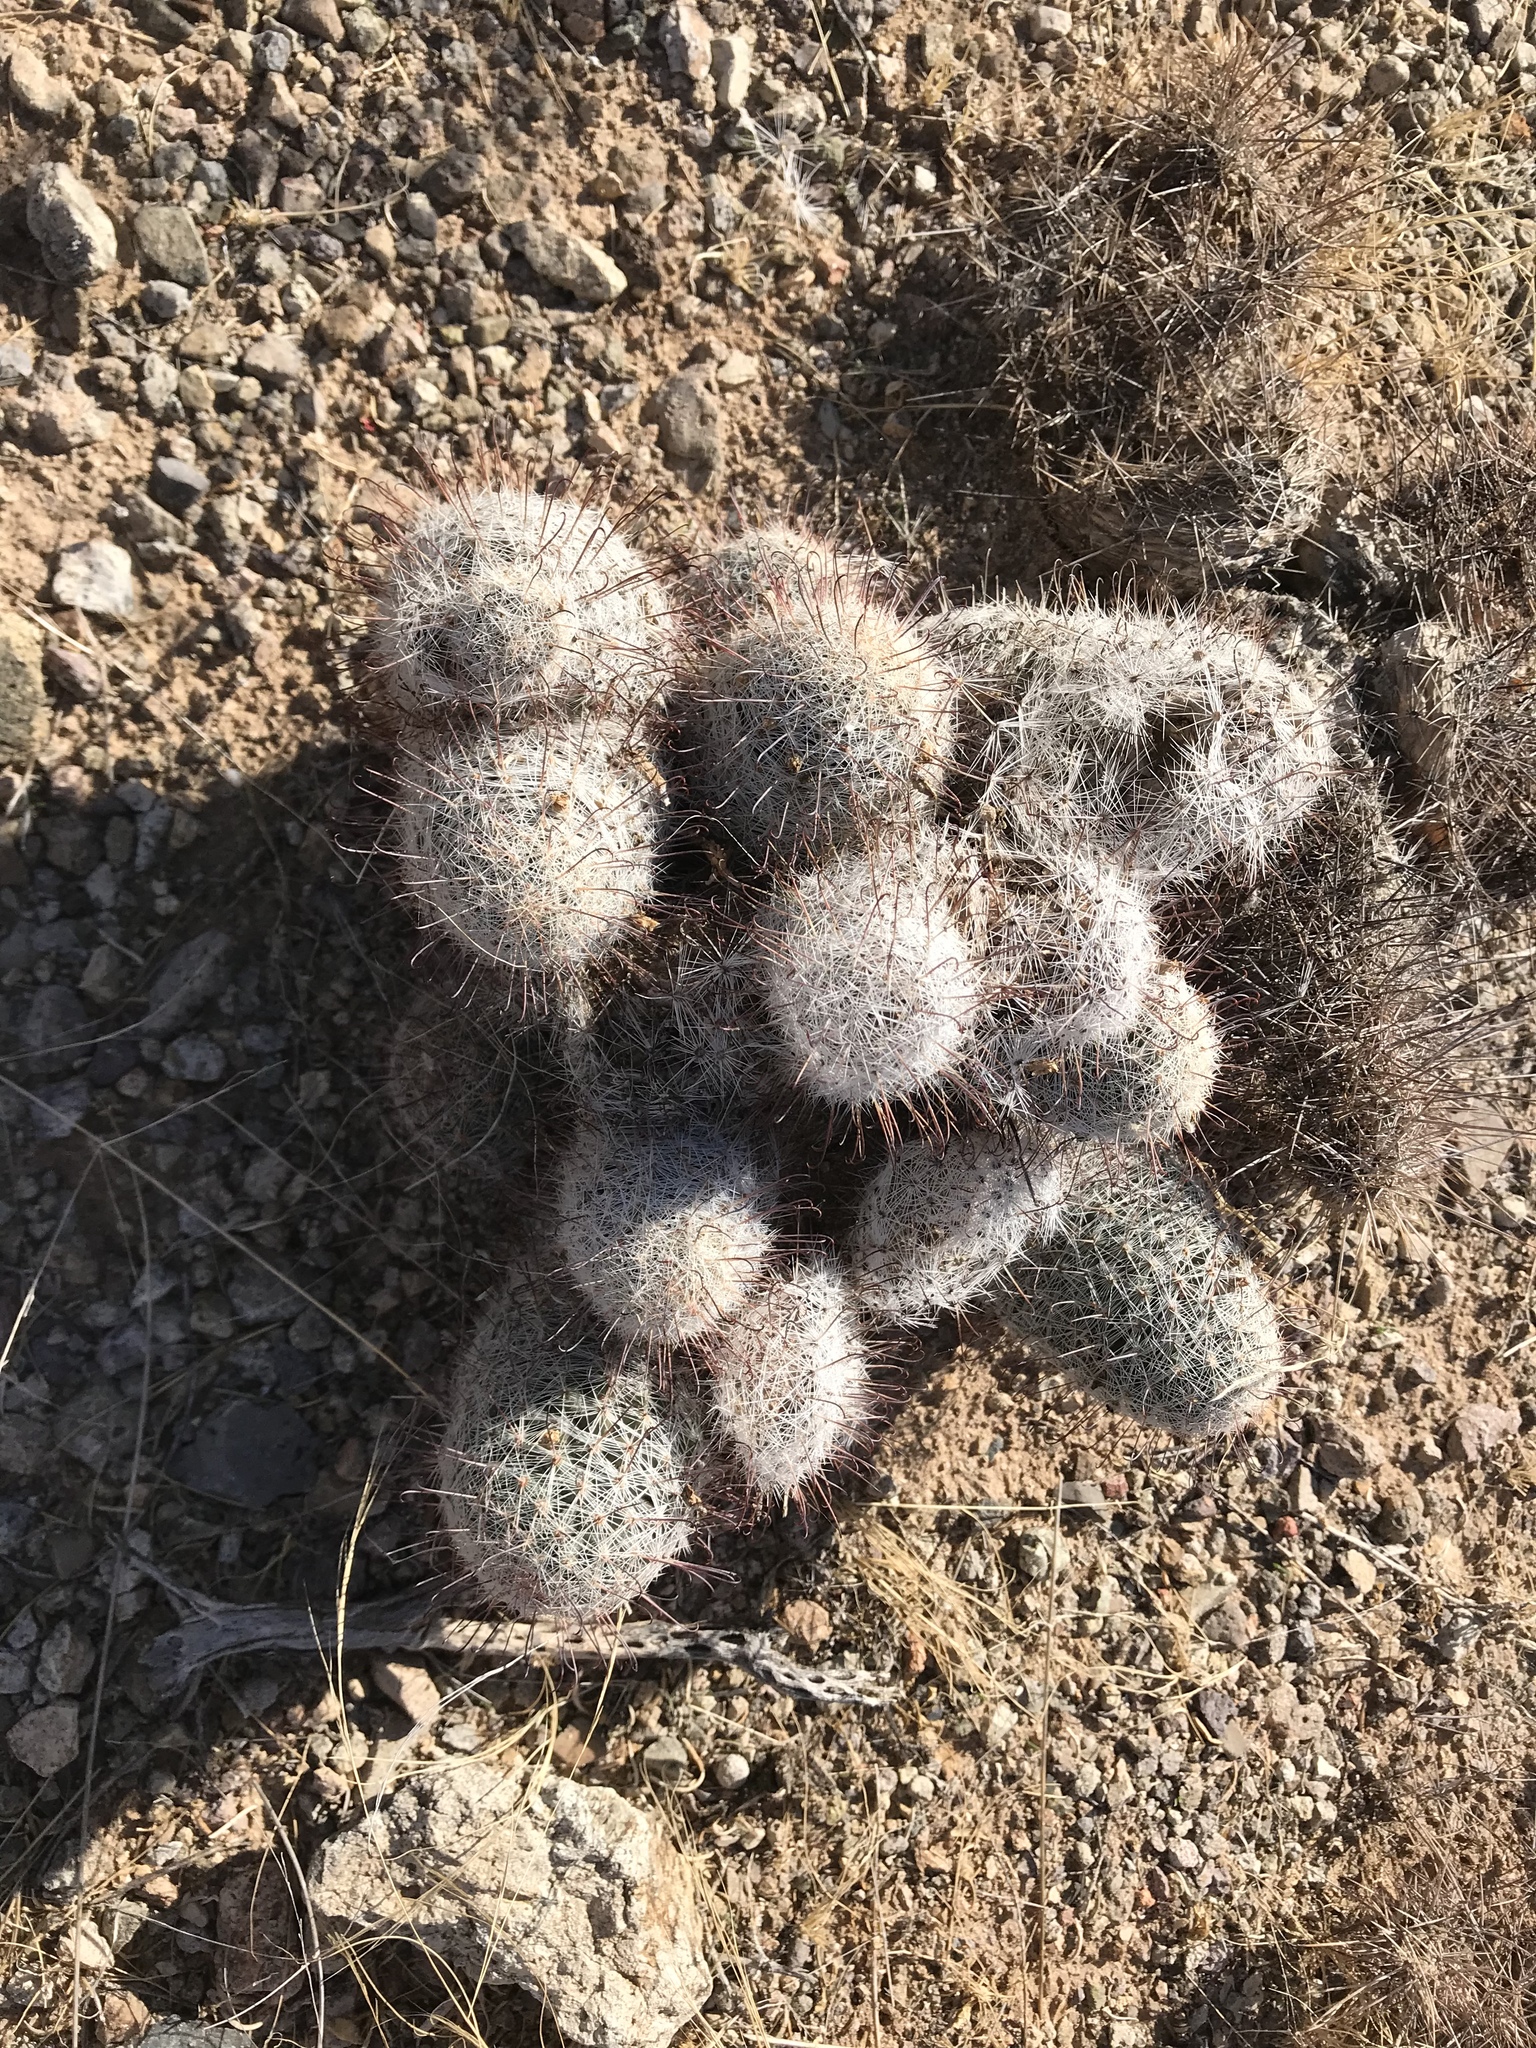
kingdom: Plantae
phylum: Tracheophyta
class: Magnoliopsida
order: Caryophyllales
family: Cactaceae
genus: Cochemiea
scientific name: Cochemiea grahamii
